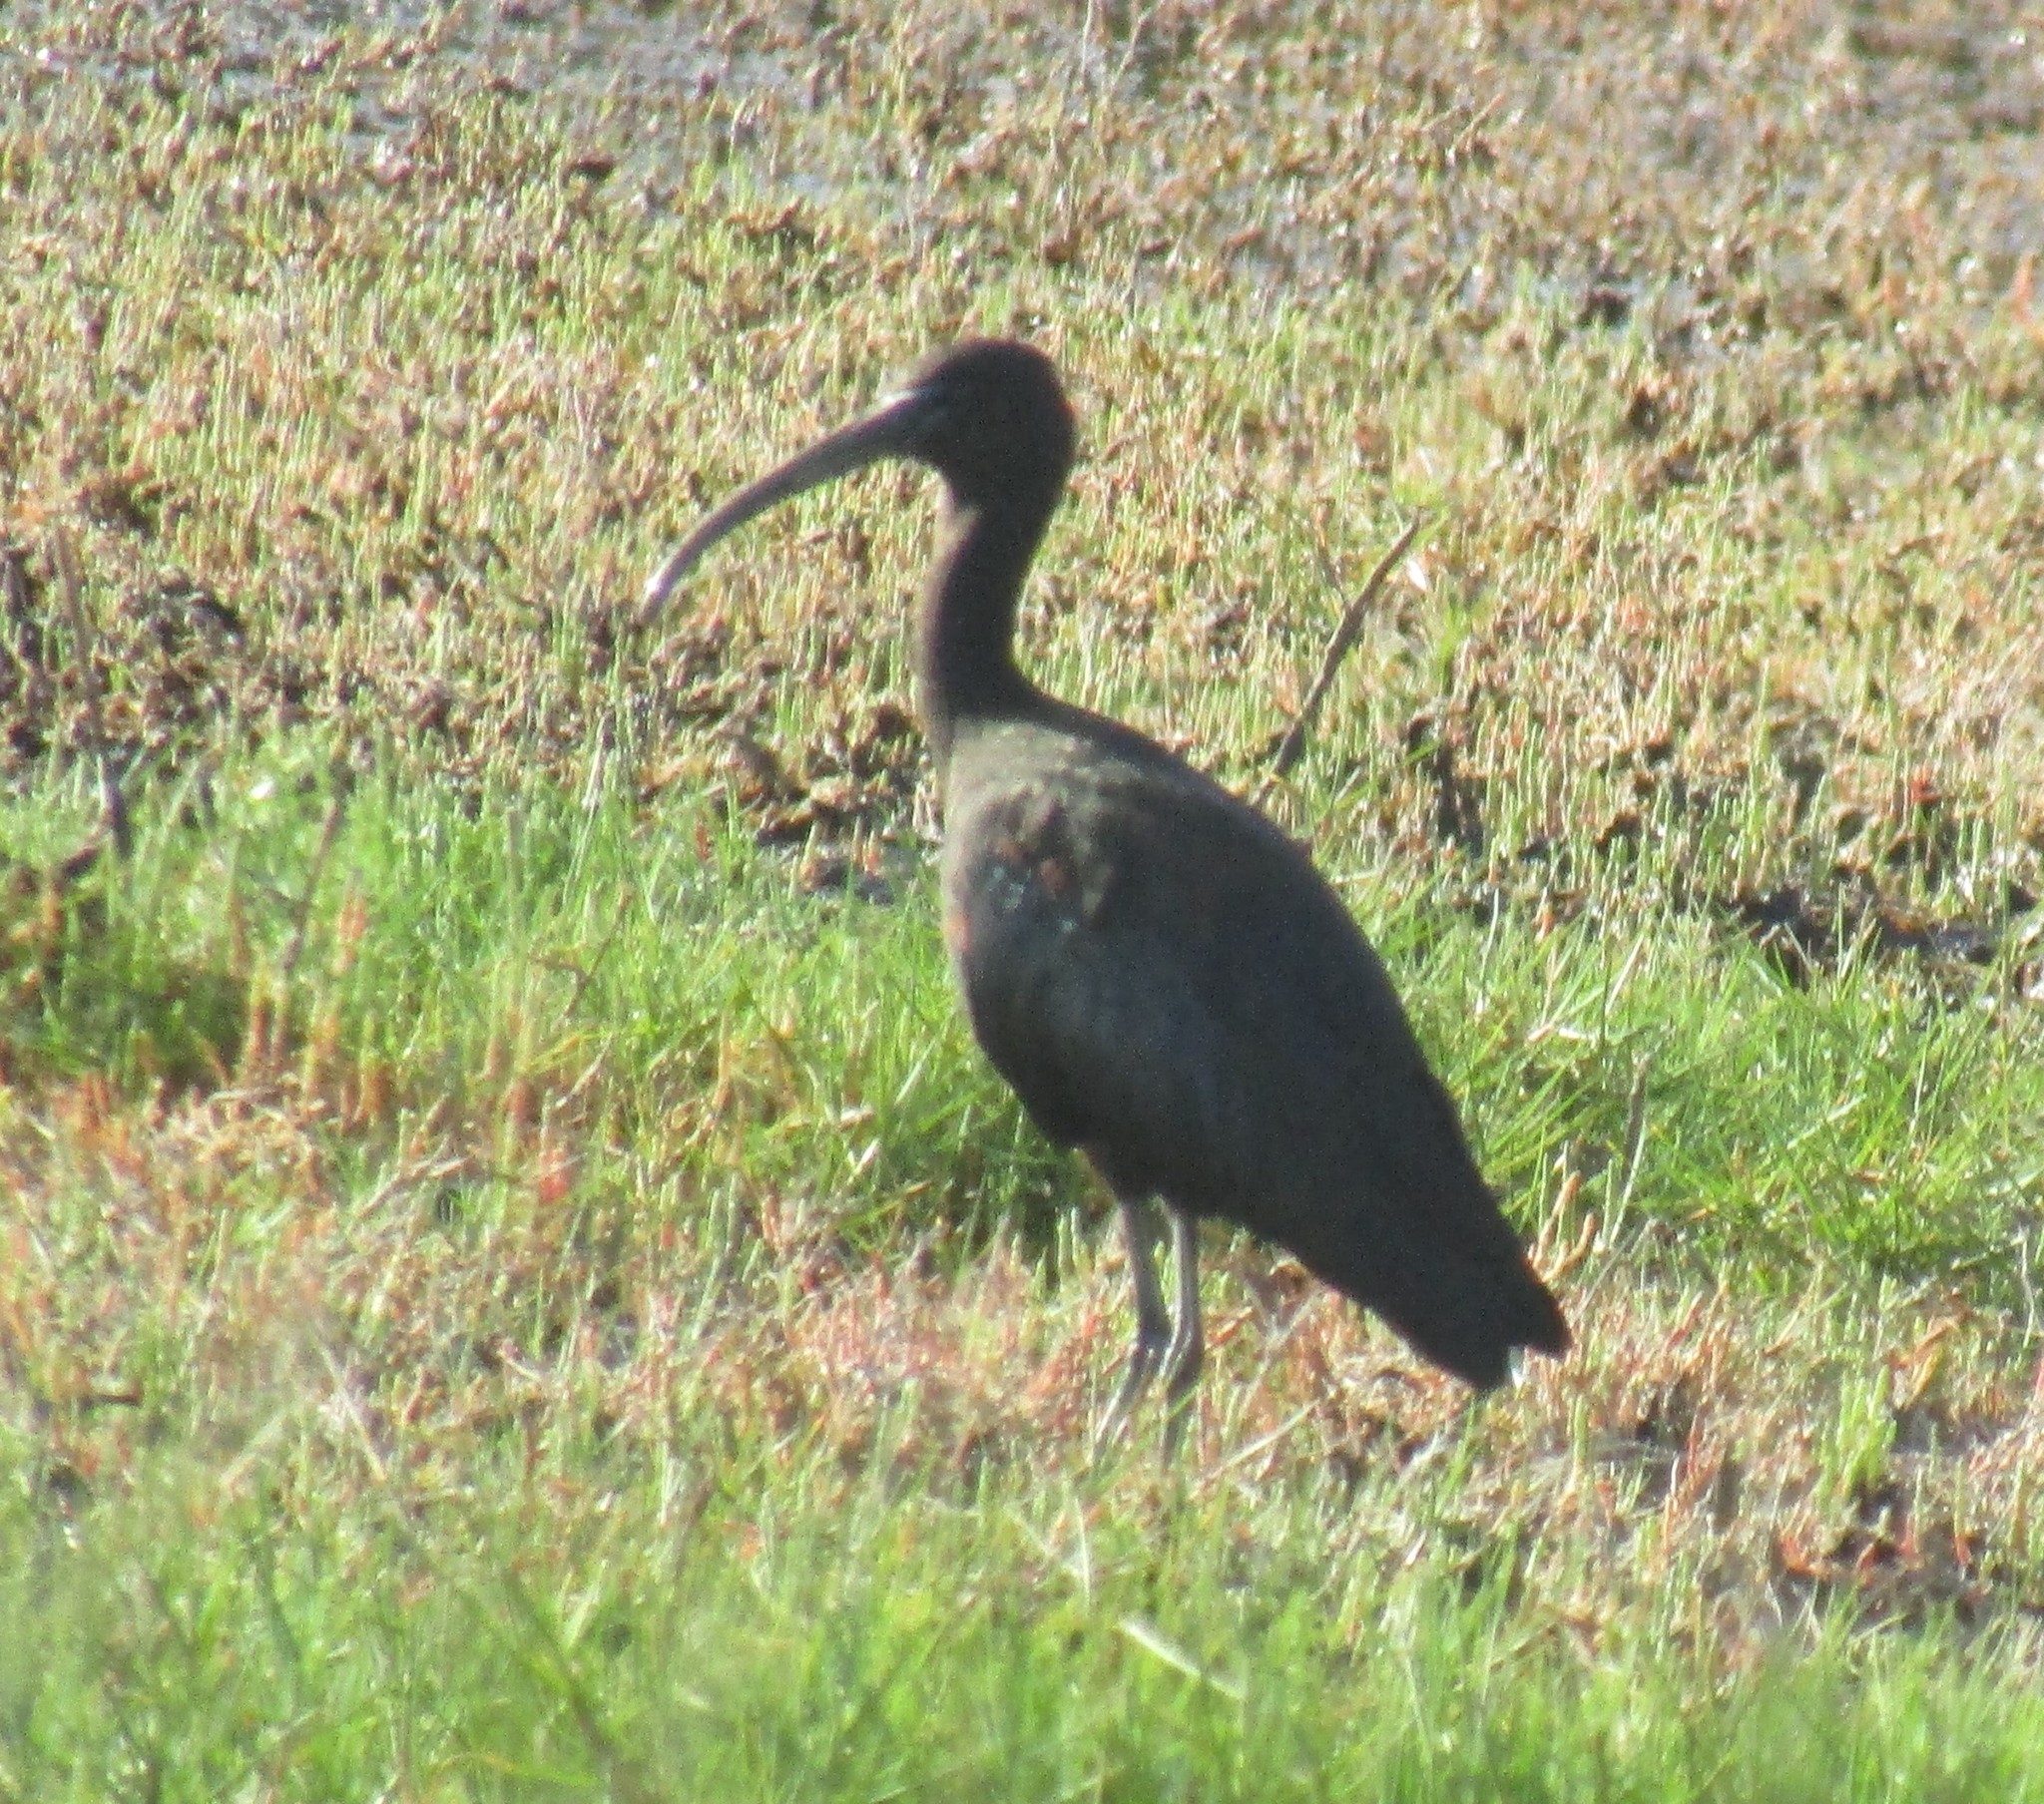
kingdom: Animalia
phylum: Chordata
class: Aves
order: Pelecaniformes
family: Threskiornithidae
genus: Plegadis
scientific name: Plegadis falcinellus
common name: Glossy ibis
